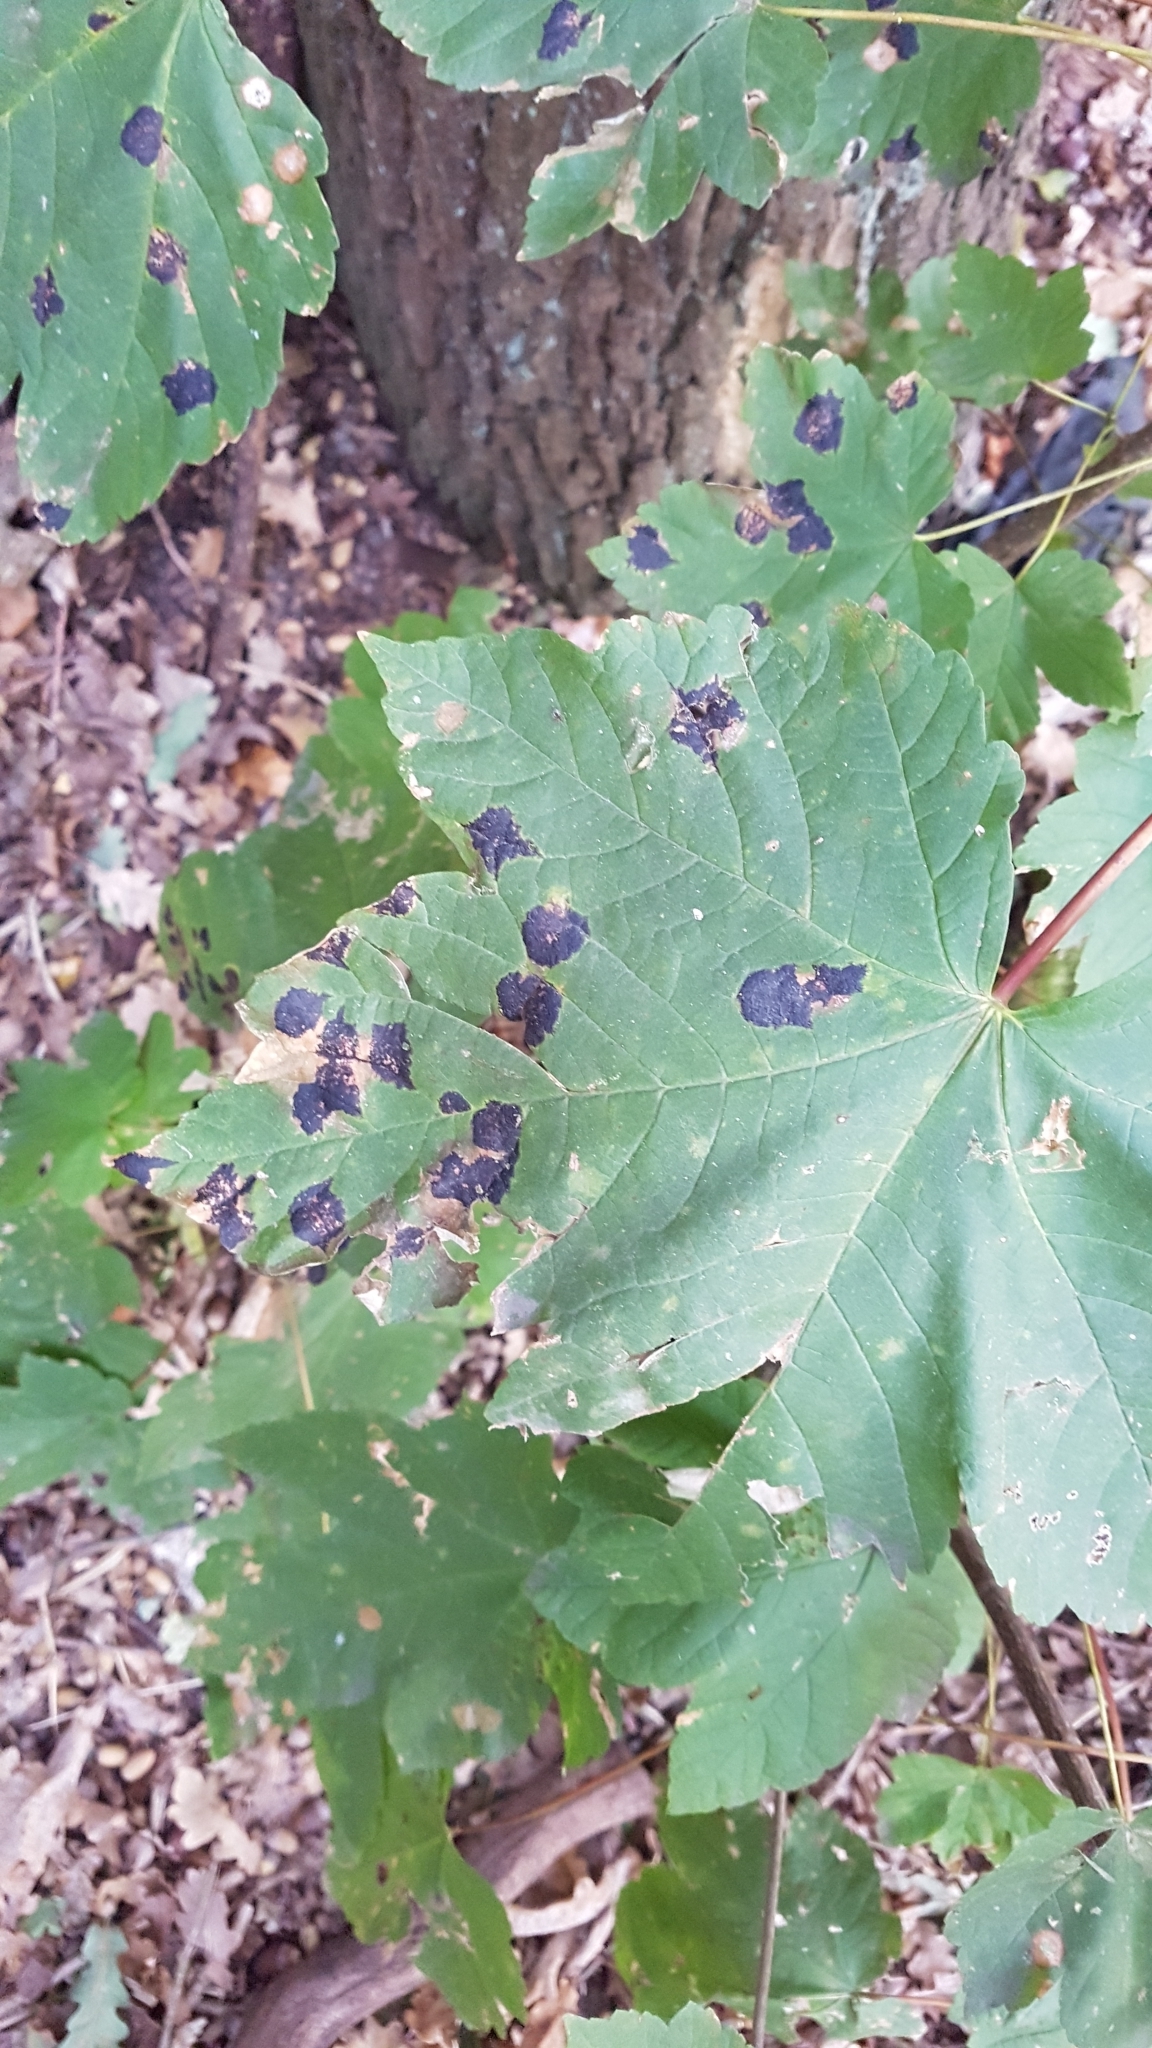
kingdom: Plantae
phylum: Tracheophyta
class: Magnoliopsida
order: Sapindales
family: Sapindaceae
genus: Acer
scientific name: Acer pseudoplatanus
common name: Sycamore
